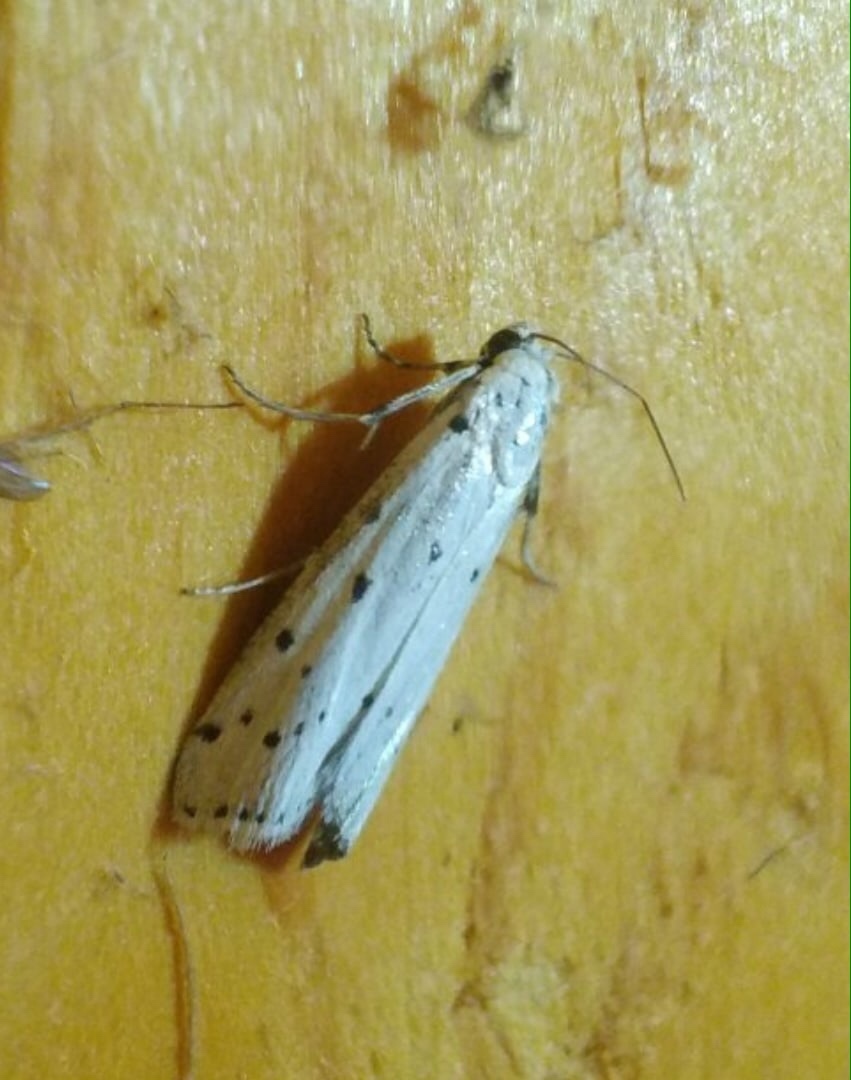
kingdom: Animalia
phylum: Arthropoda
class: Insecta
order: Lepidoptera
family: Pyralidae
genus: Myelois
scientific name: Myelois circumvoluta
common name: Thistle ermine
